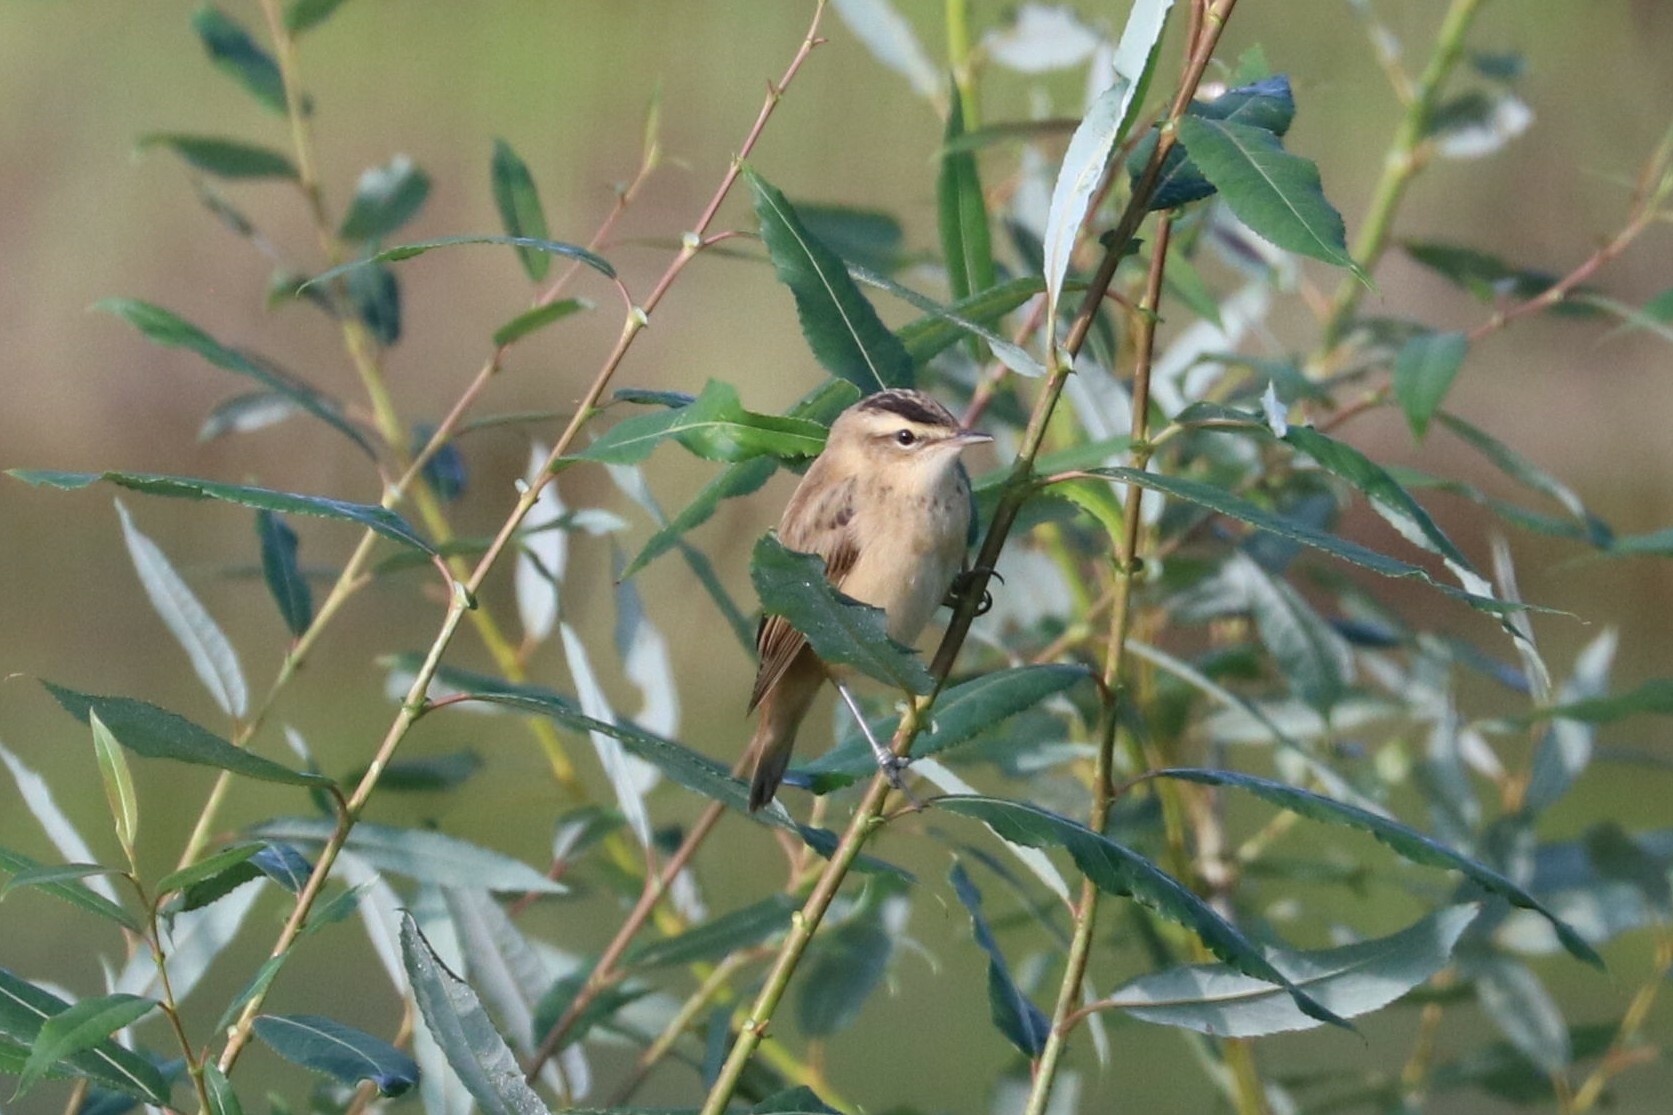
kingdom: Animalia
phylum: Chordata
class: Aves
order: Passeriformes
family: Acrocephalidae
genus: Acrocephalus
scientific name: Acrocephalus schoenobaenus
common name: Sedge warbler
